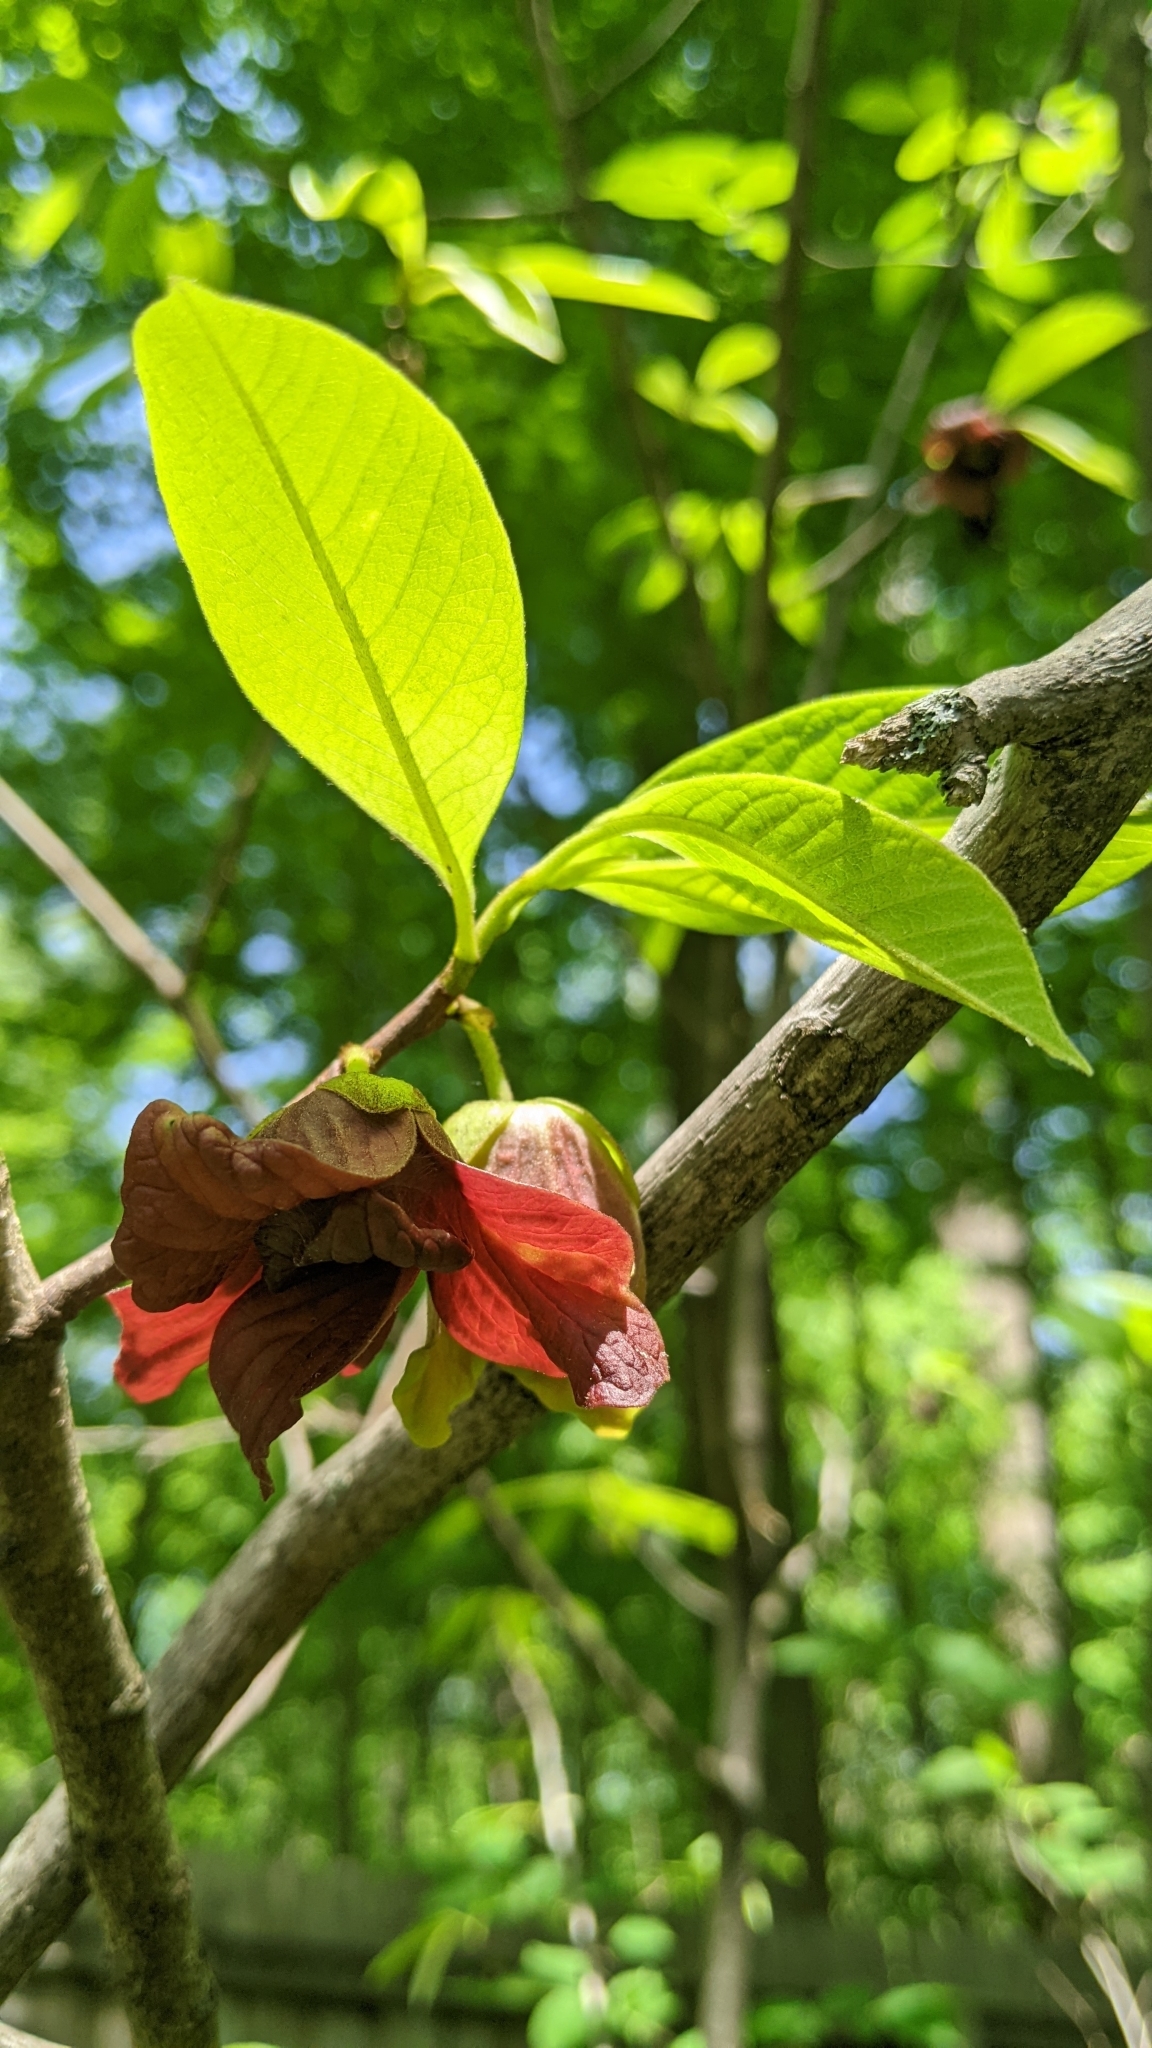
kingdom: Plantae
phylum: Tracheophyta
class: Magnoliopsida
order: Magnoliales
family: Annonaceae
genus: Asimina
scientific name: Asimina triloba
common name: Dog-banana
